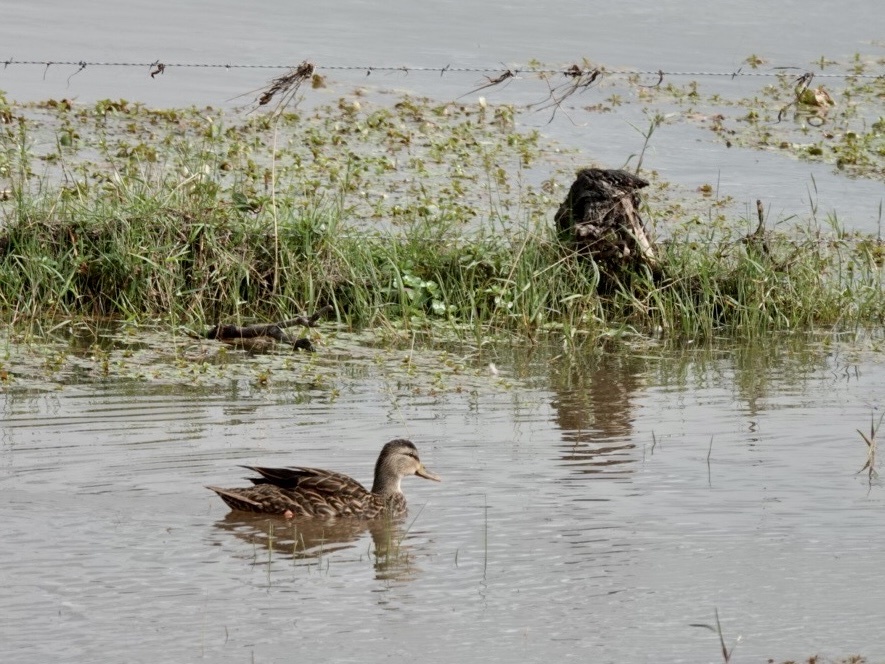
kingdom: Animalia
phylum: Chordata
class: Aves
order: Anseriformes
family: Anatidae
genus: Anas
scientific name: Anas fulvigula
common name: Mottled duck
